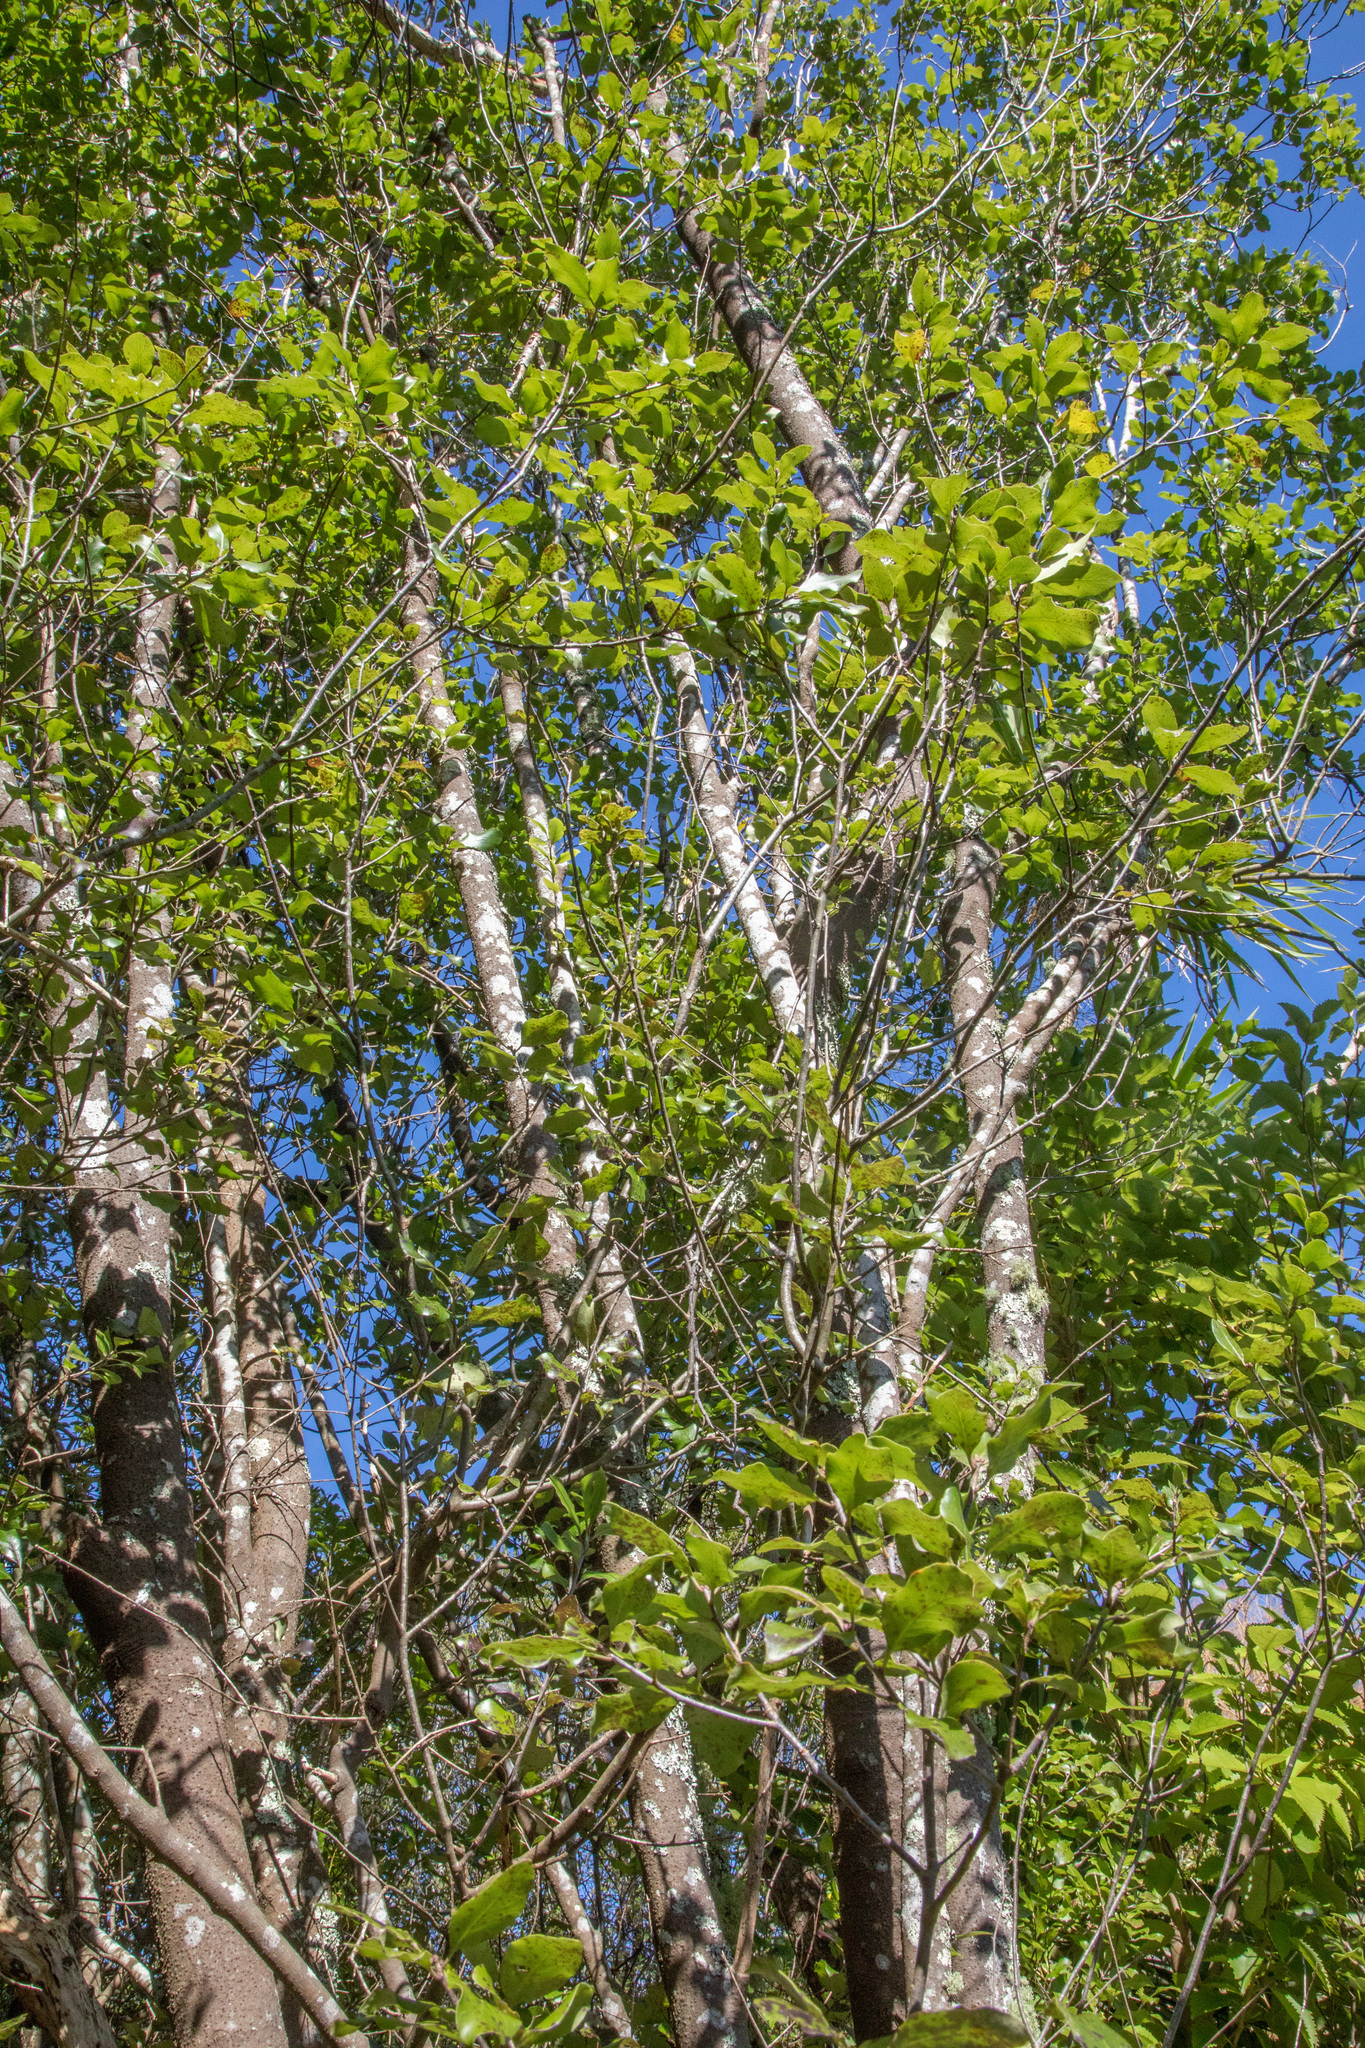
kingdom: Plantae
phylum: Tracheophyta
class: Magnoliopsida
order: Apiales
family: Pittosporaceae
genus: Pittosporum
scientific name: Pittosporum tenuifolium
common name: Kohuhu
